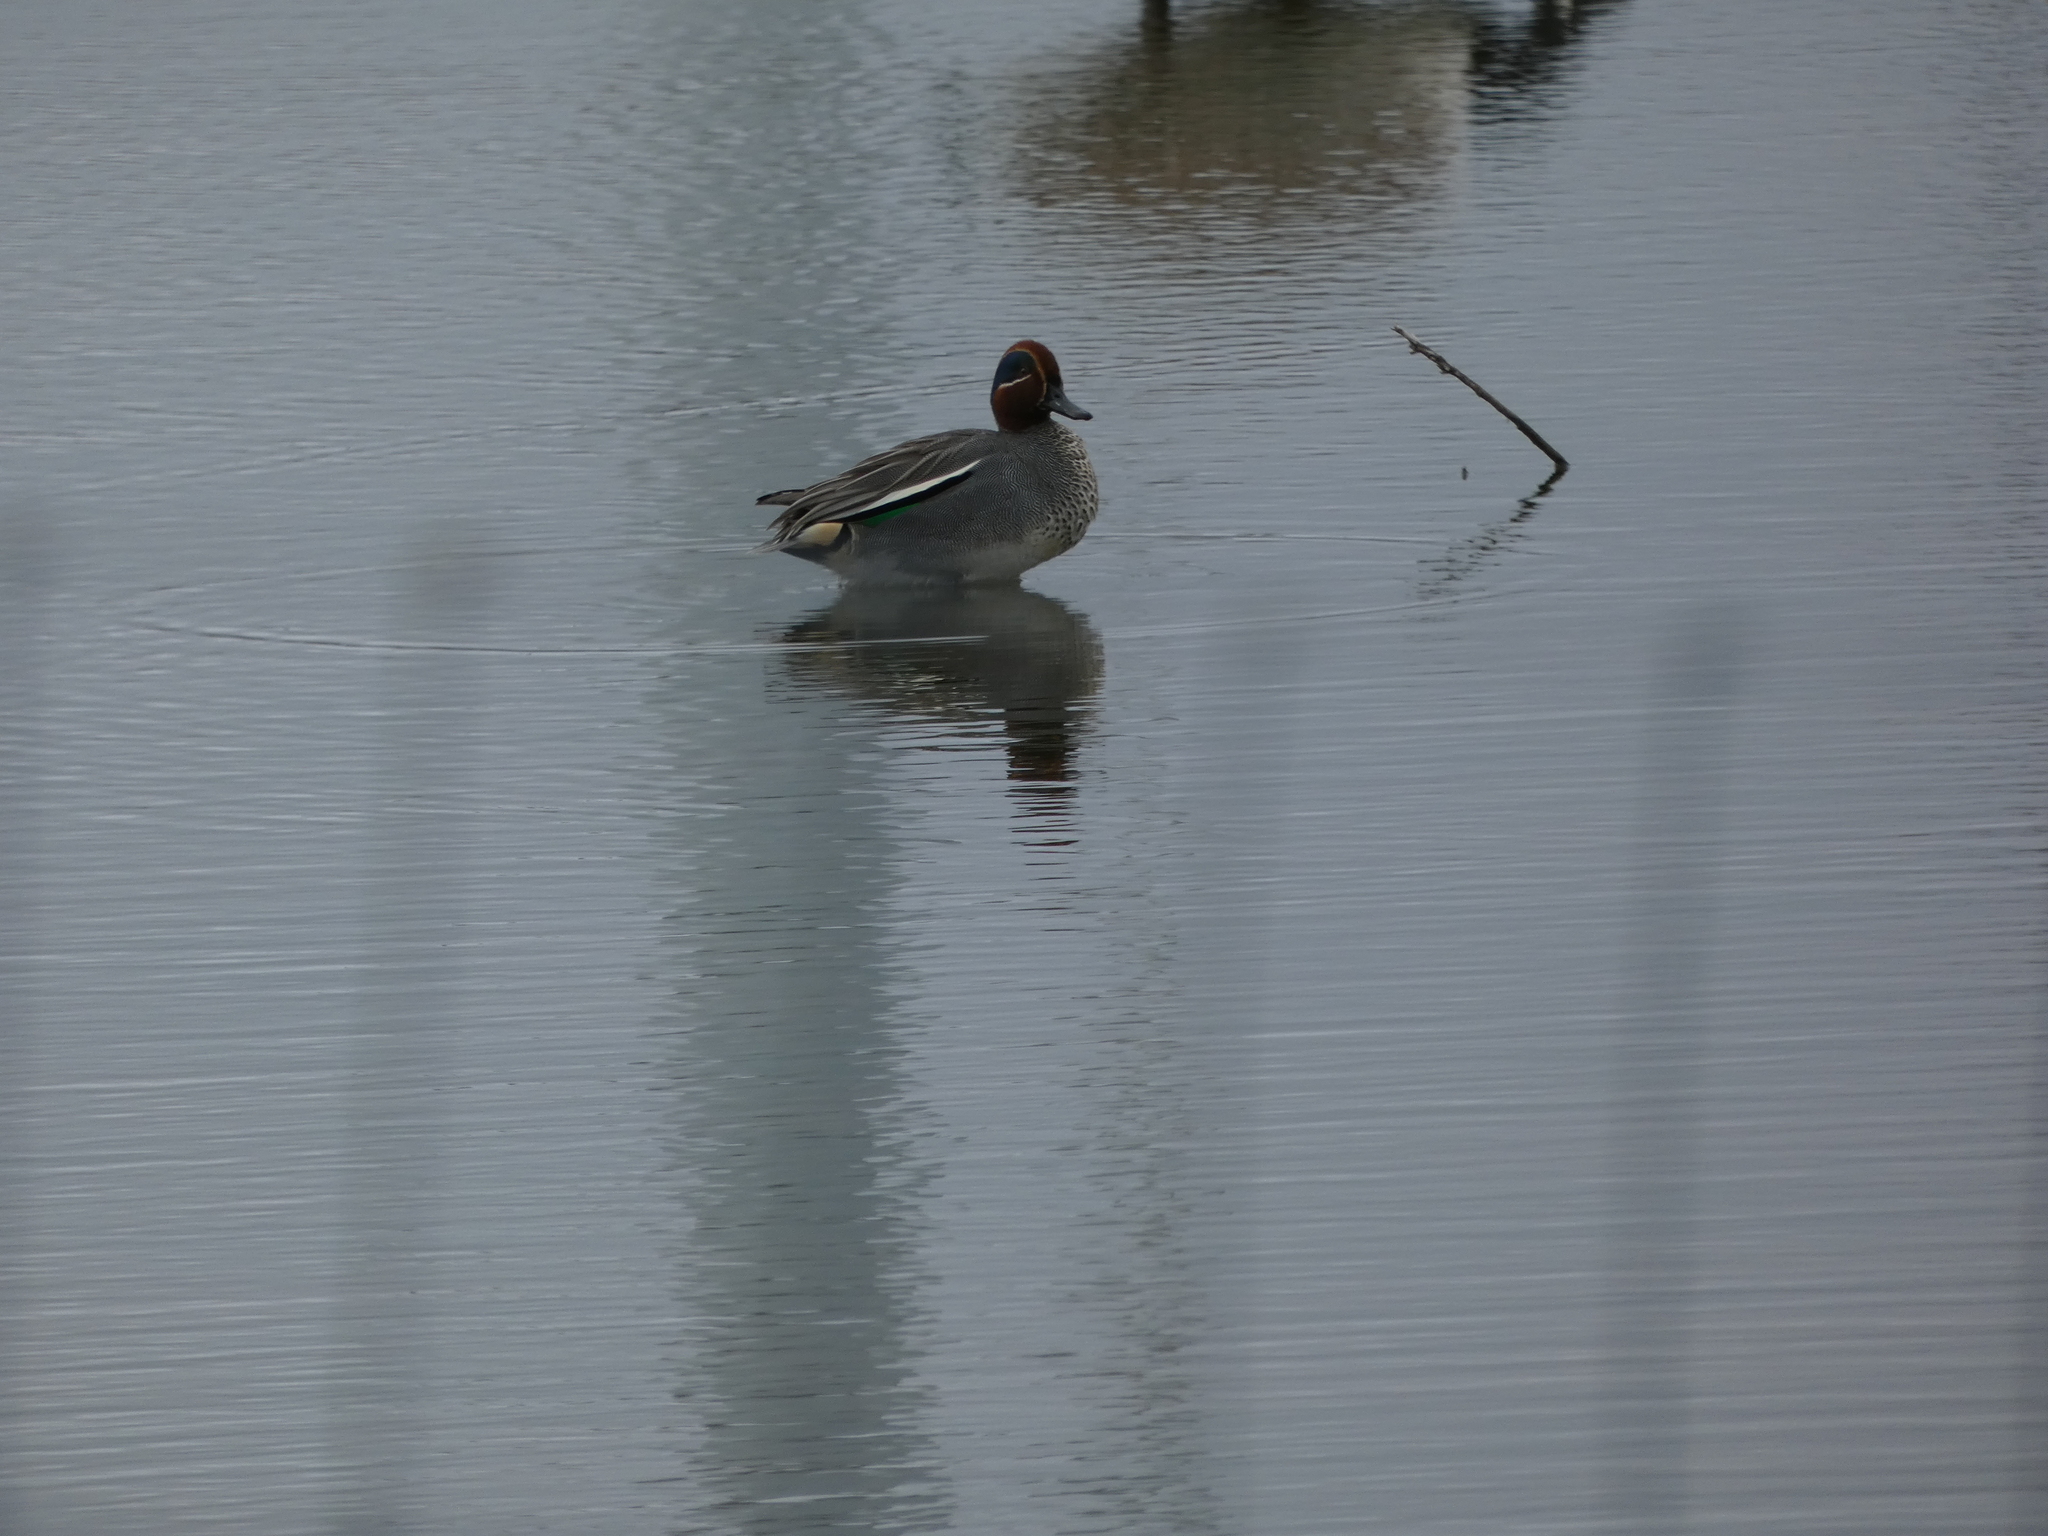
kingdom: Animalia
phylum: Chordata
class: Aves
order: Anseriformes
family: Anatidae
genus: Anas
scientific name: Anas crecca
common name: Eurasian teal
